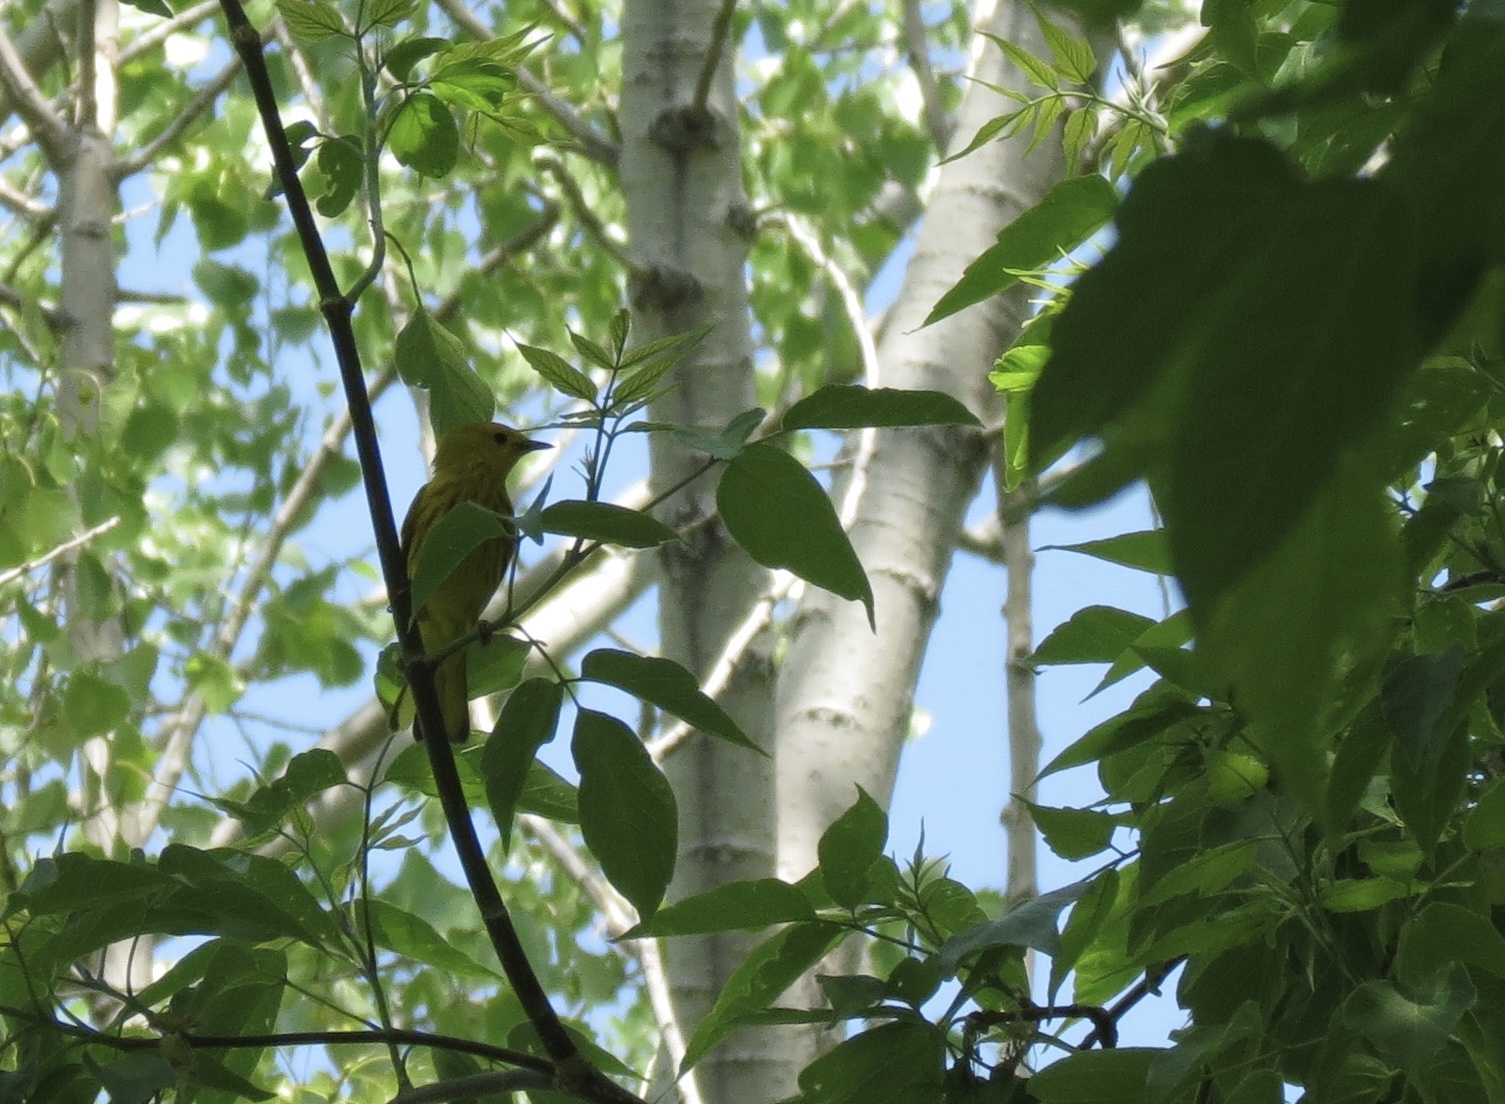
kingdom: Animalia
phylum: Chordata
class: Aves
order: Passeriformes
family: Parulidae
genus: Setophaga
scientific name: Setophaga petechia
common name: Yellow warbler
